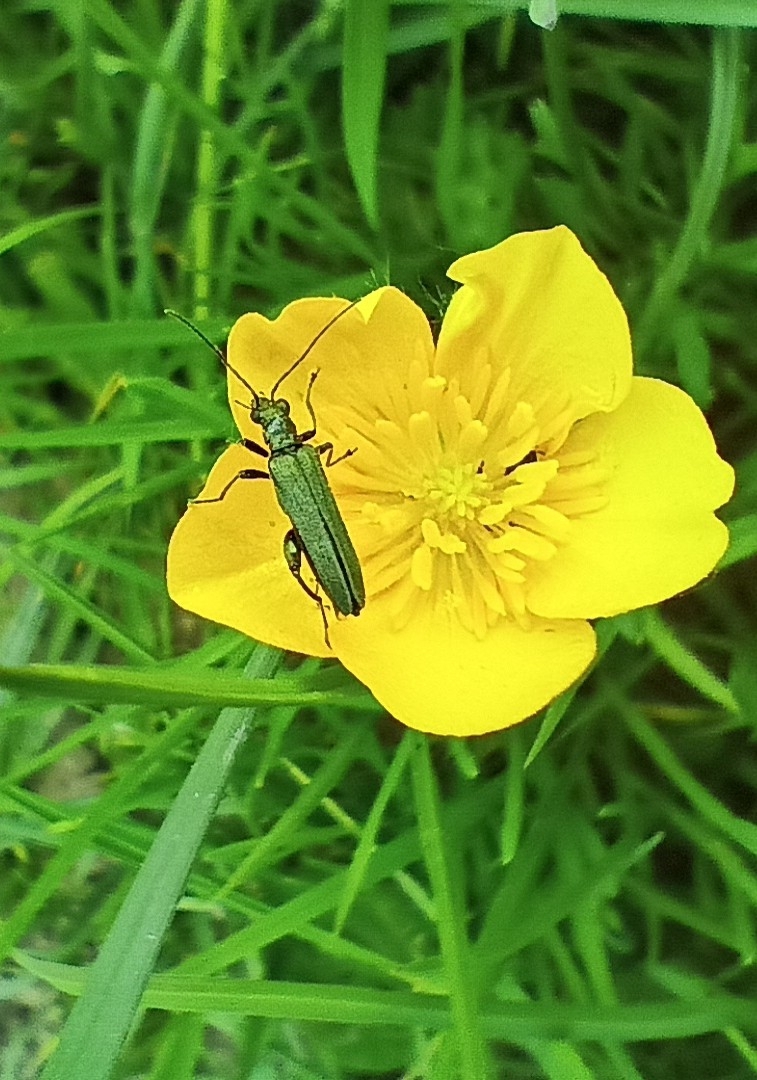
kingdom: Animalia
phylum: Arthropoda
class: Insecta
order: Coleoptera
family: Oedemeridae
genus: Oedemera
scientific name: Oedemera virescens
